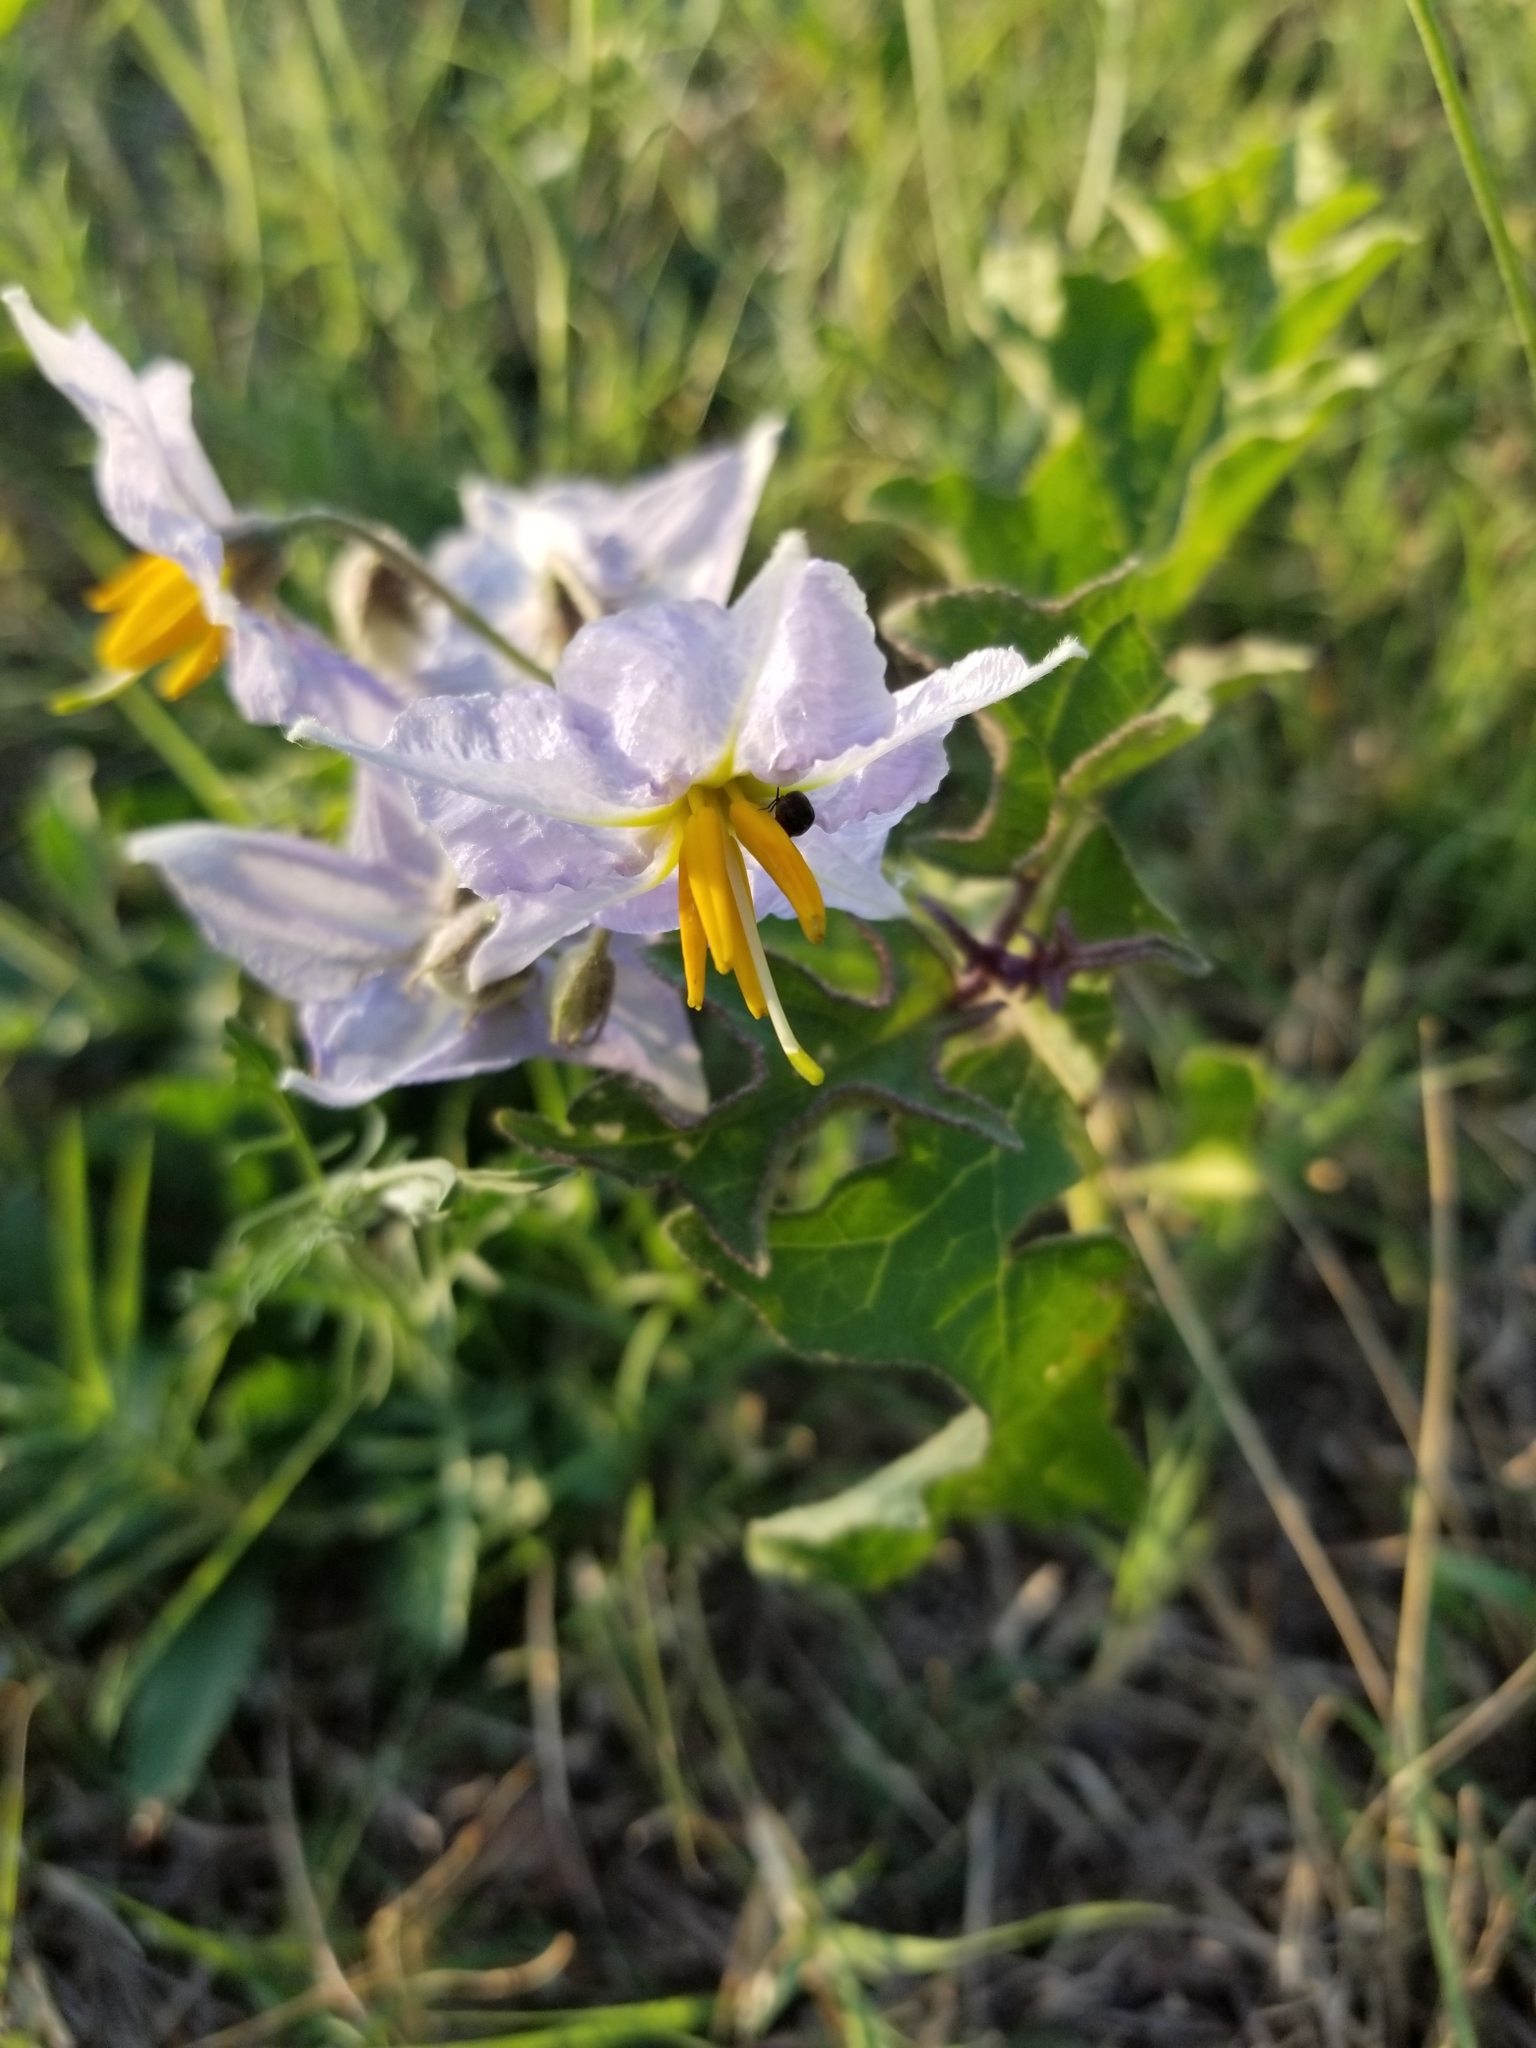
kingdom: Plantae
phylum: Tracheophyta
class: Magnoliopsida
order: Solanales
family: Solanaceae
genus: Solanum
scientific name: Solanum dimidiatum
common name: Carolina horse-nettle
